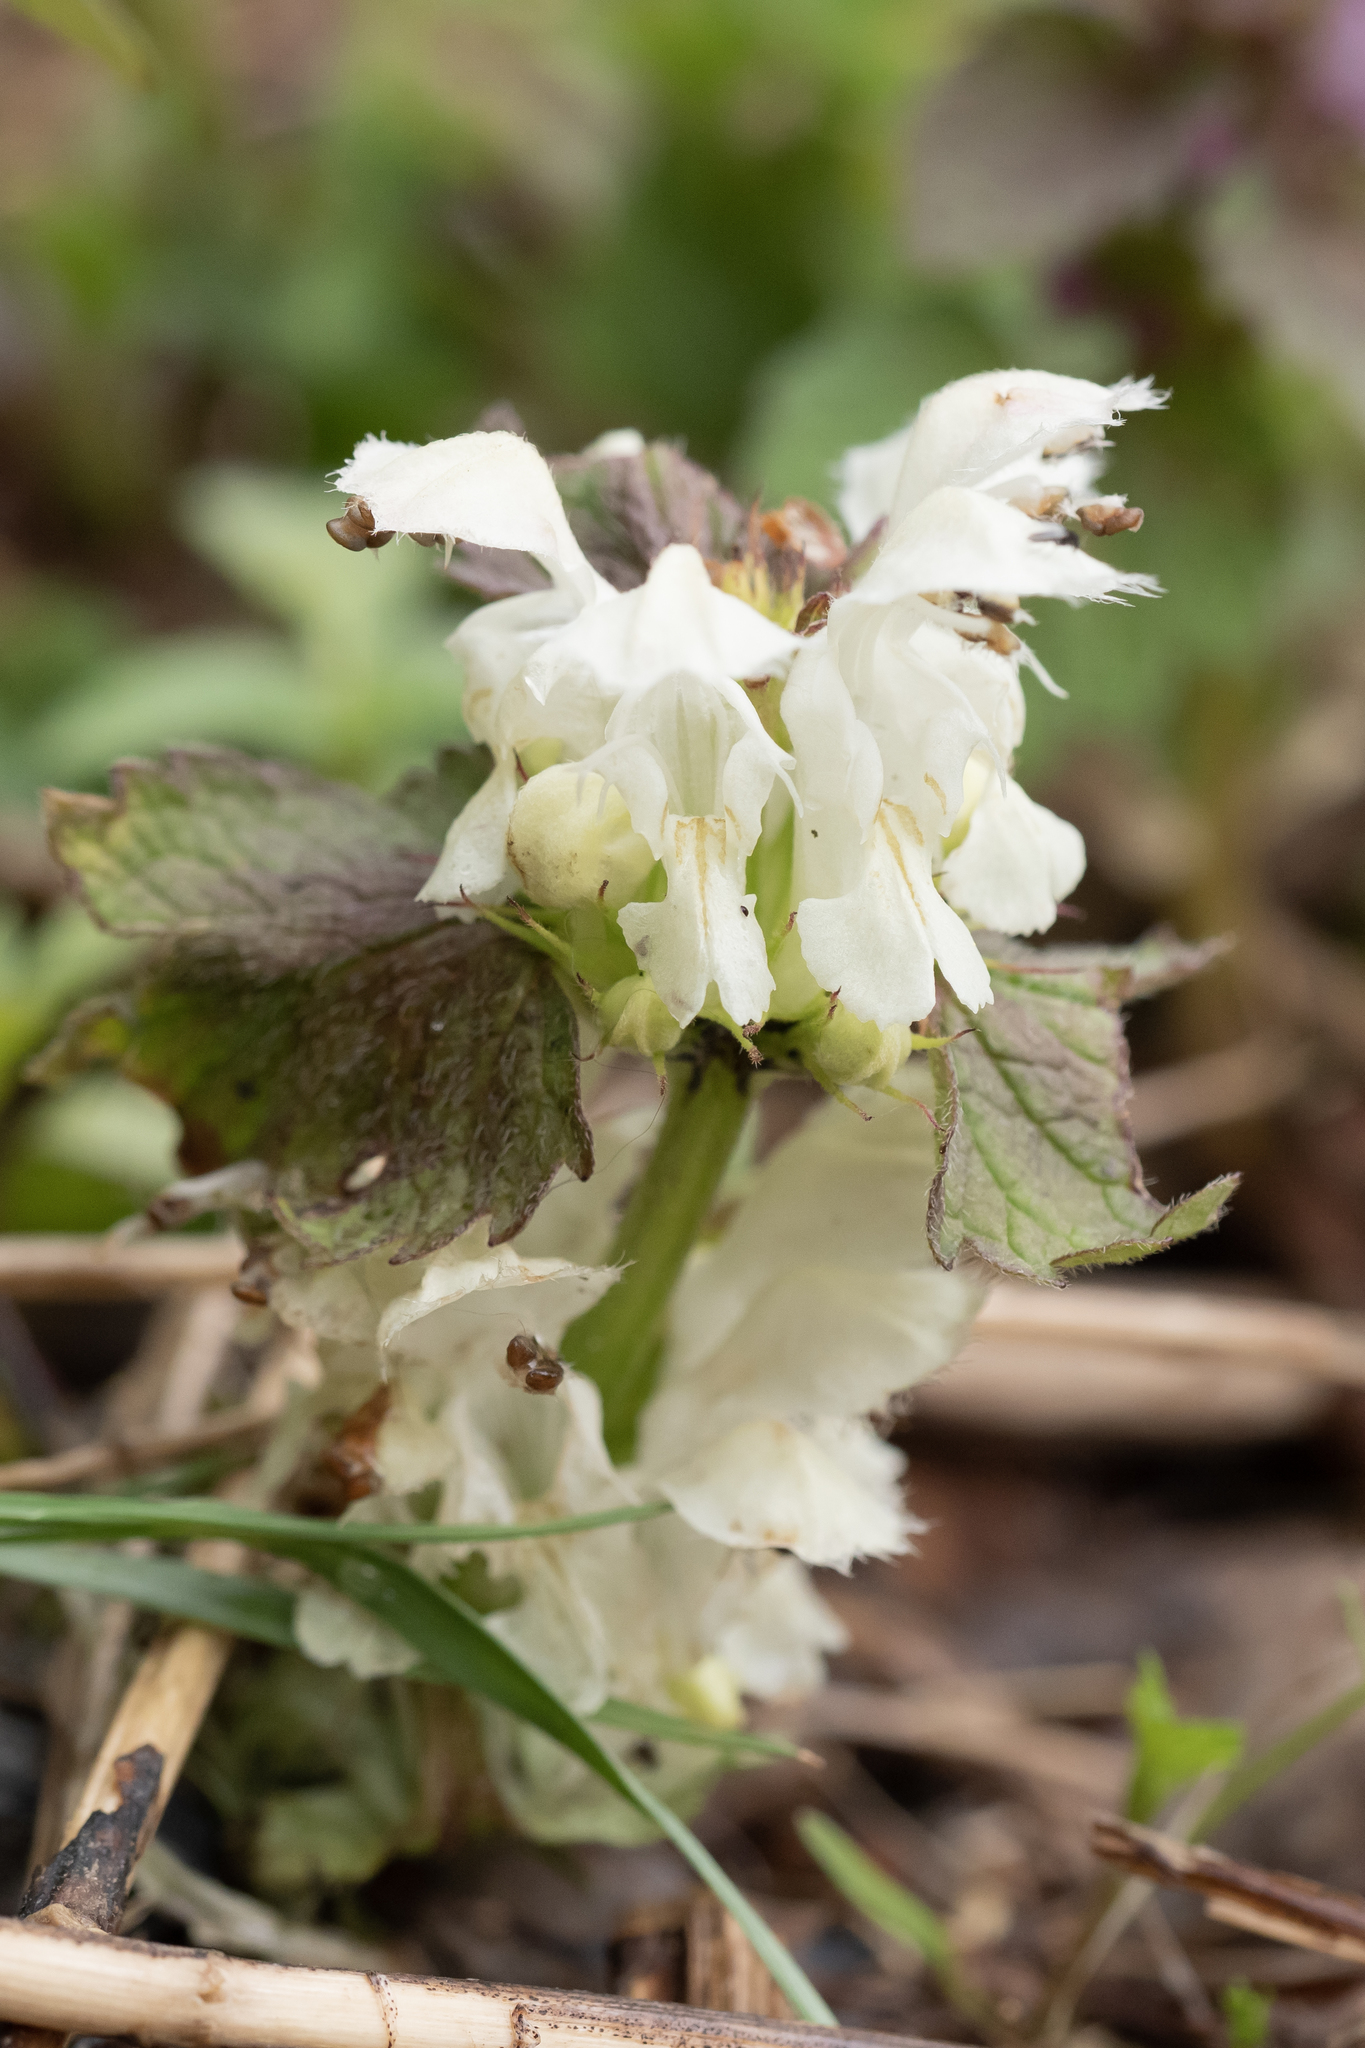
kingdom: Plantae
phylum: Tracheophyta
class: Magnoliopsida
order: Lamiales
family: Lamiaceae
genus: Lamium
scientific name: Lamium maculatum
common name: Spotted dead-nettle
